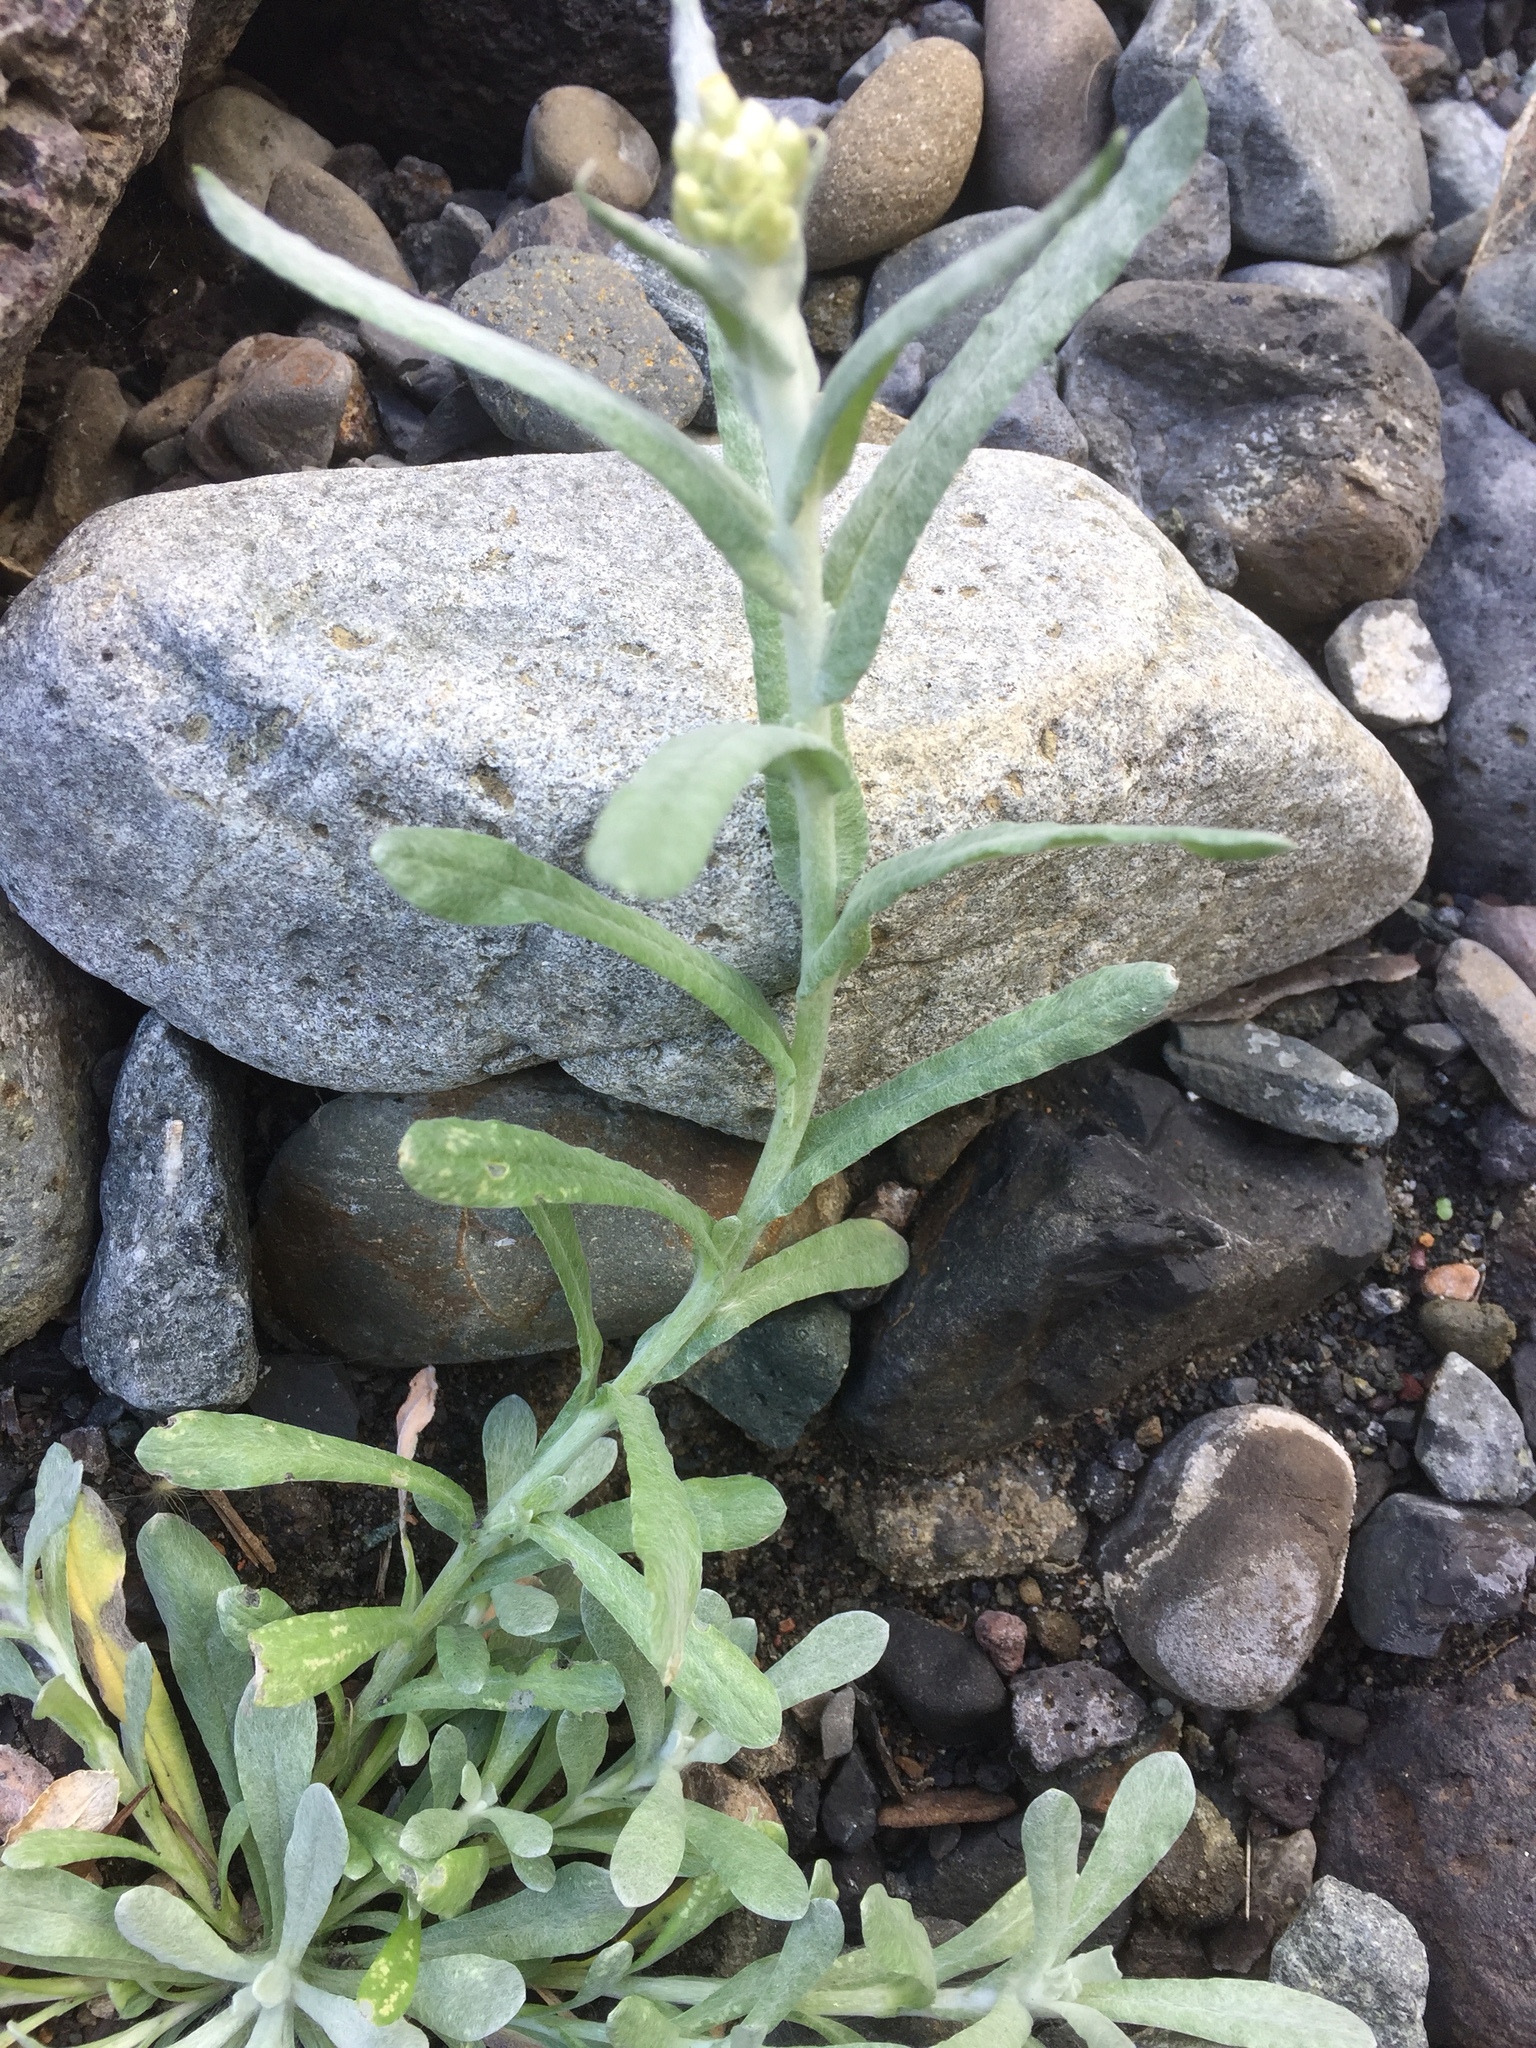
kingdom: Plantae
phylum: Tracheophyta
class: Magnoliopsida
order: Asterales
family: Asteraceae
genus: Helichrysum
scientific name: Helichrysum luteoalbum
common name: Daisy
